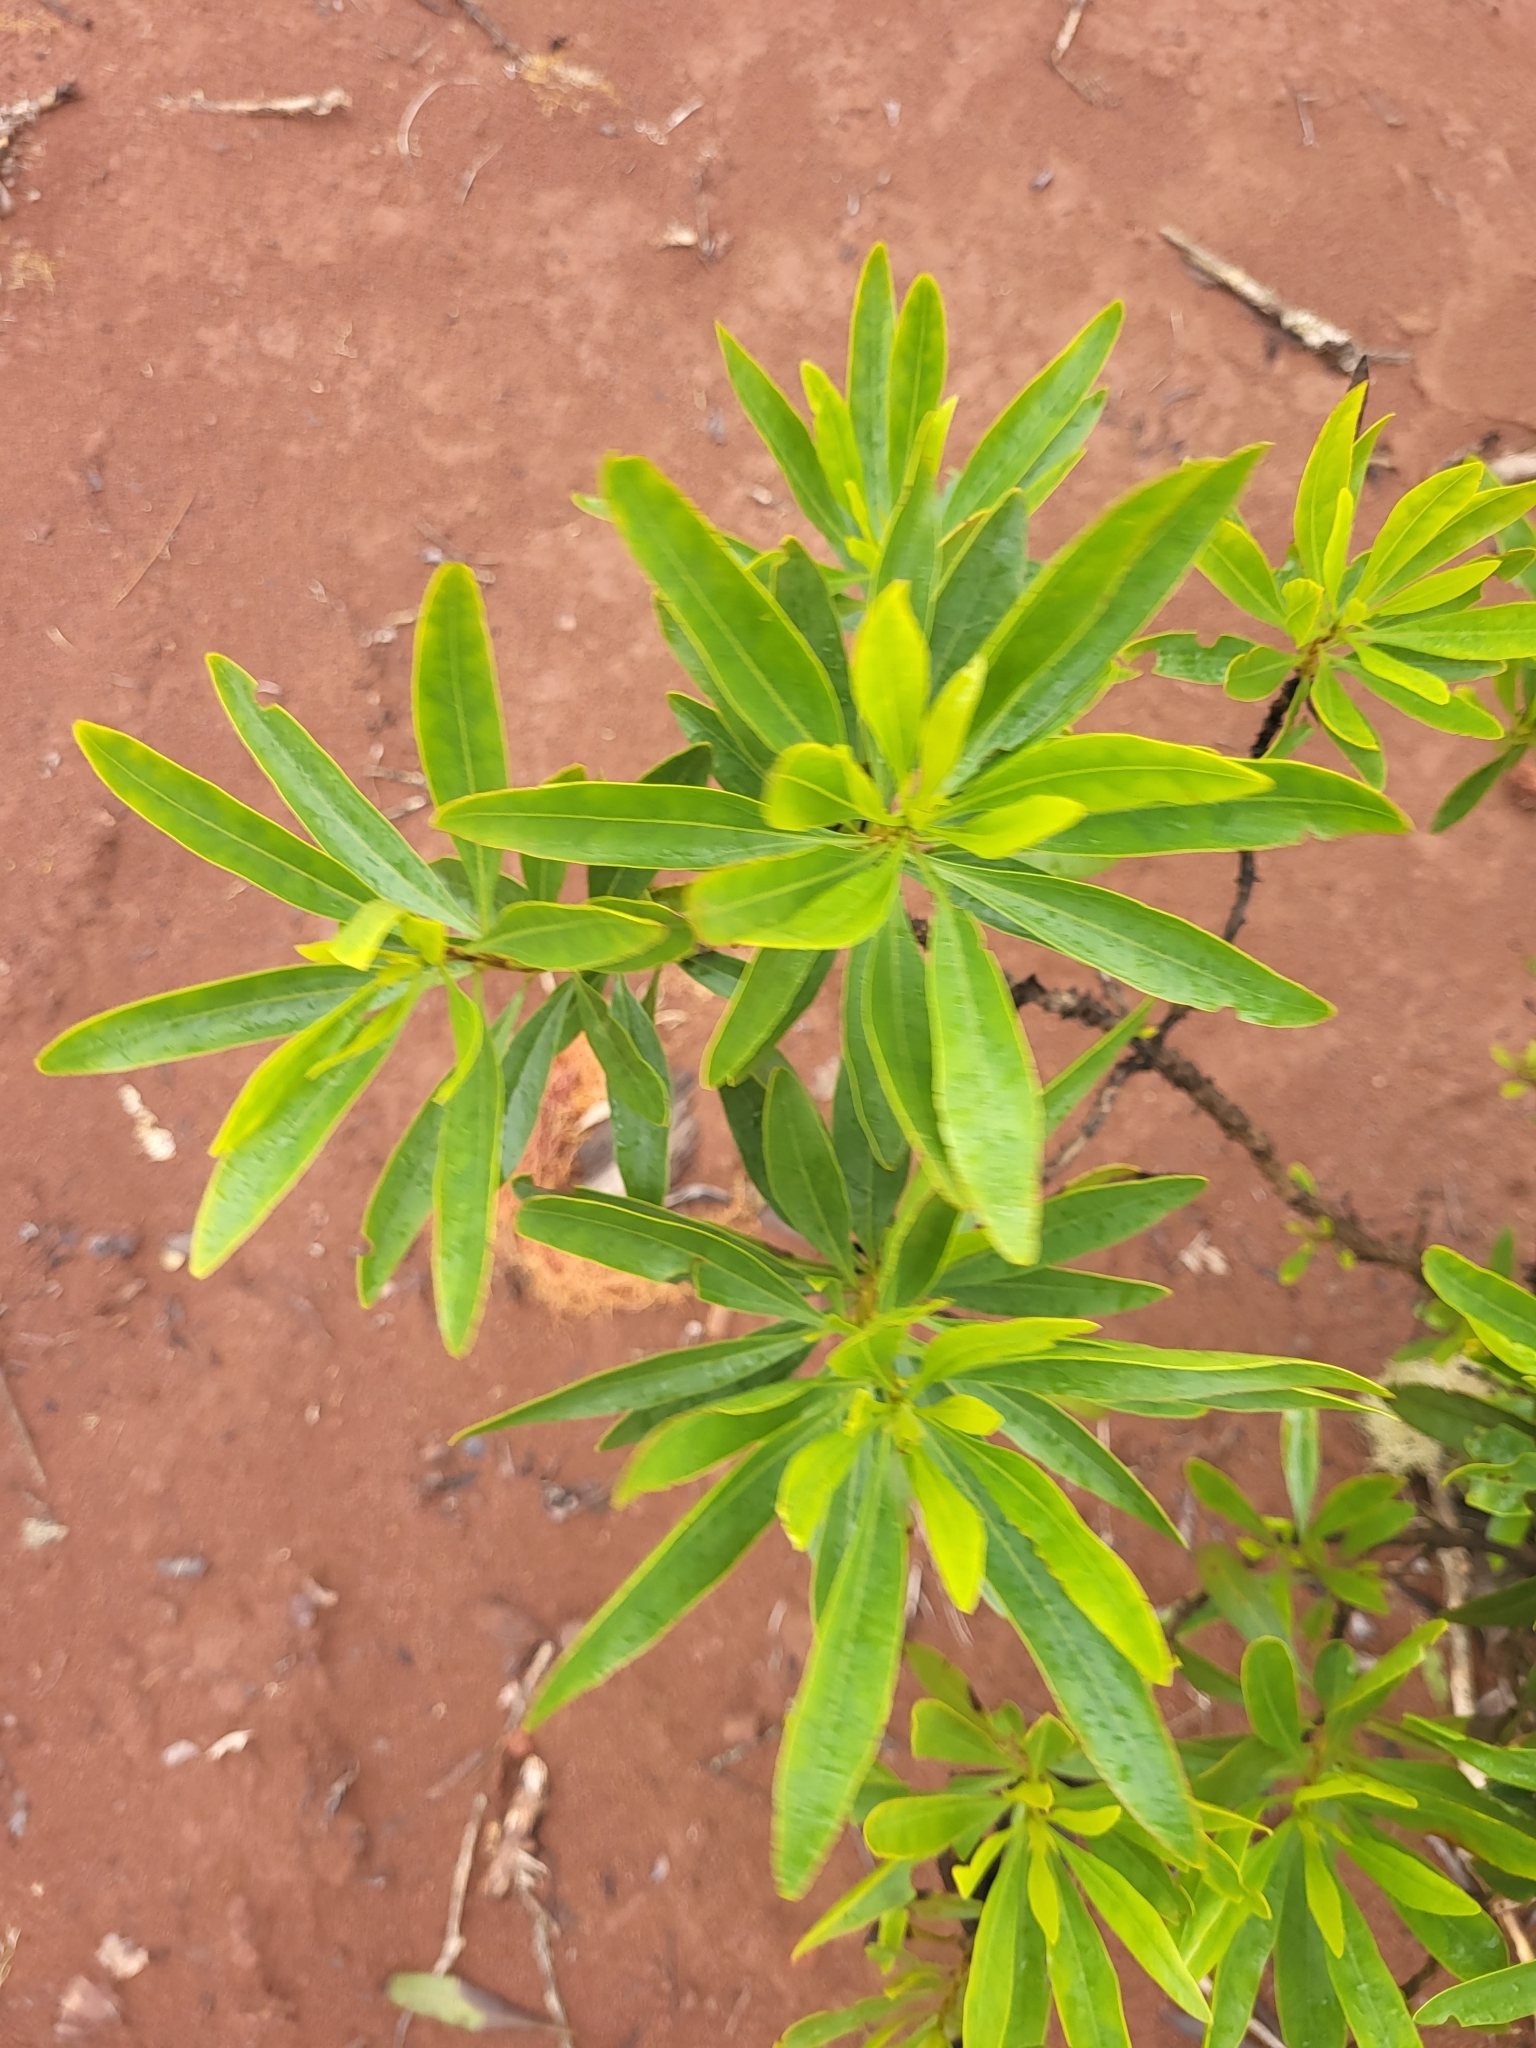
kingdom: Plantae
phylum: Tracheophyta
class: Magnoliopsida
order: Lamiales
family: Plantaginaceae
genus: Globularia
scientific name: Globularia salicina
